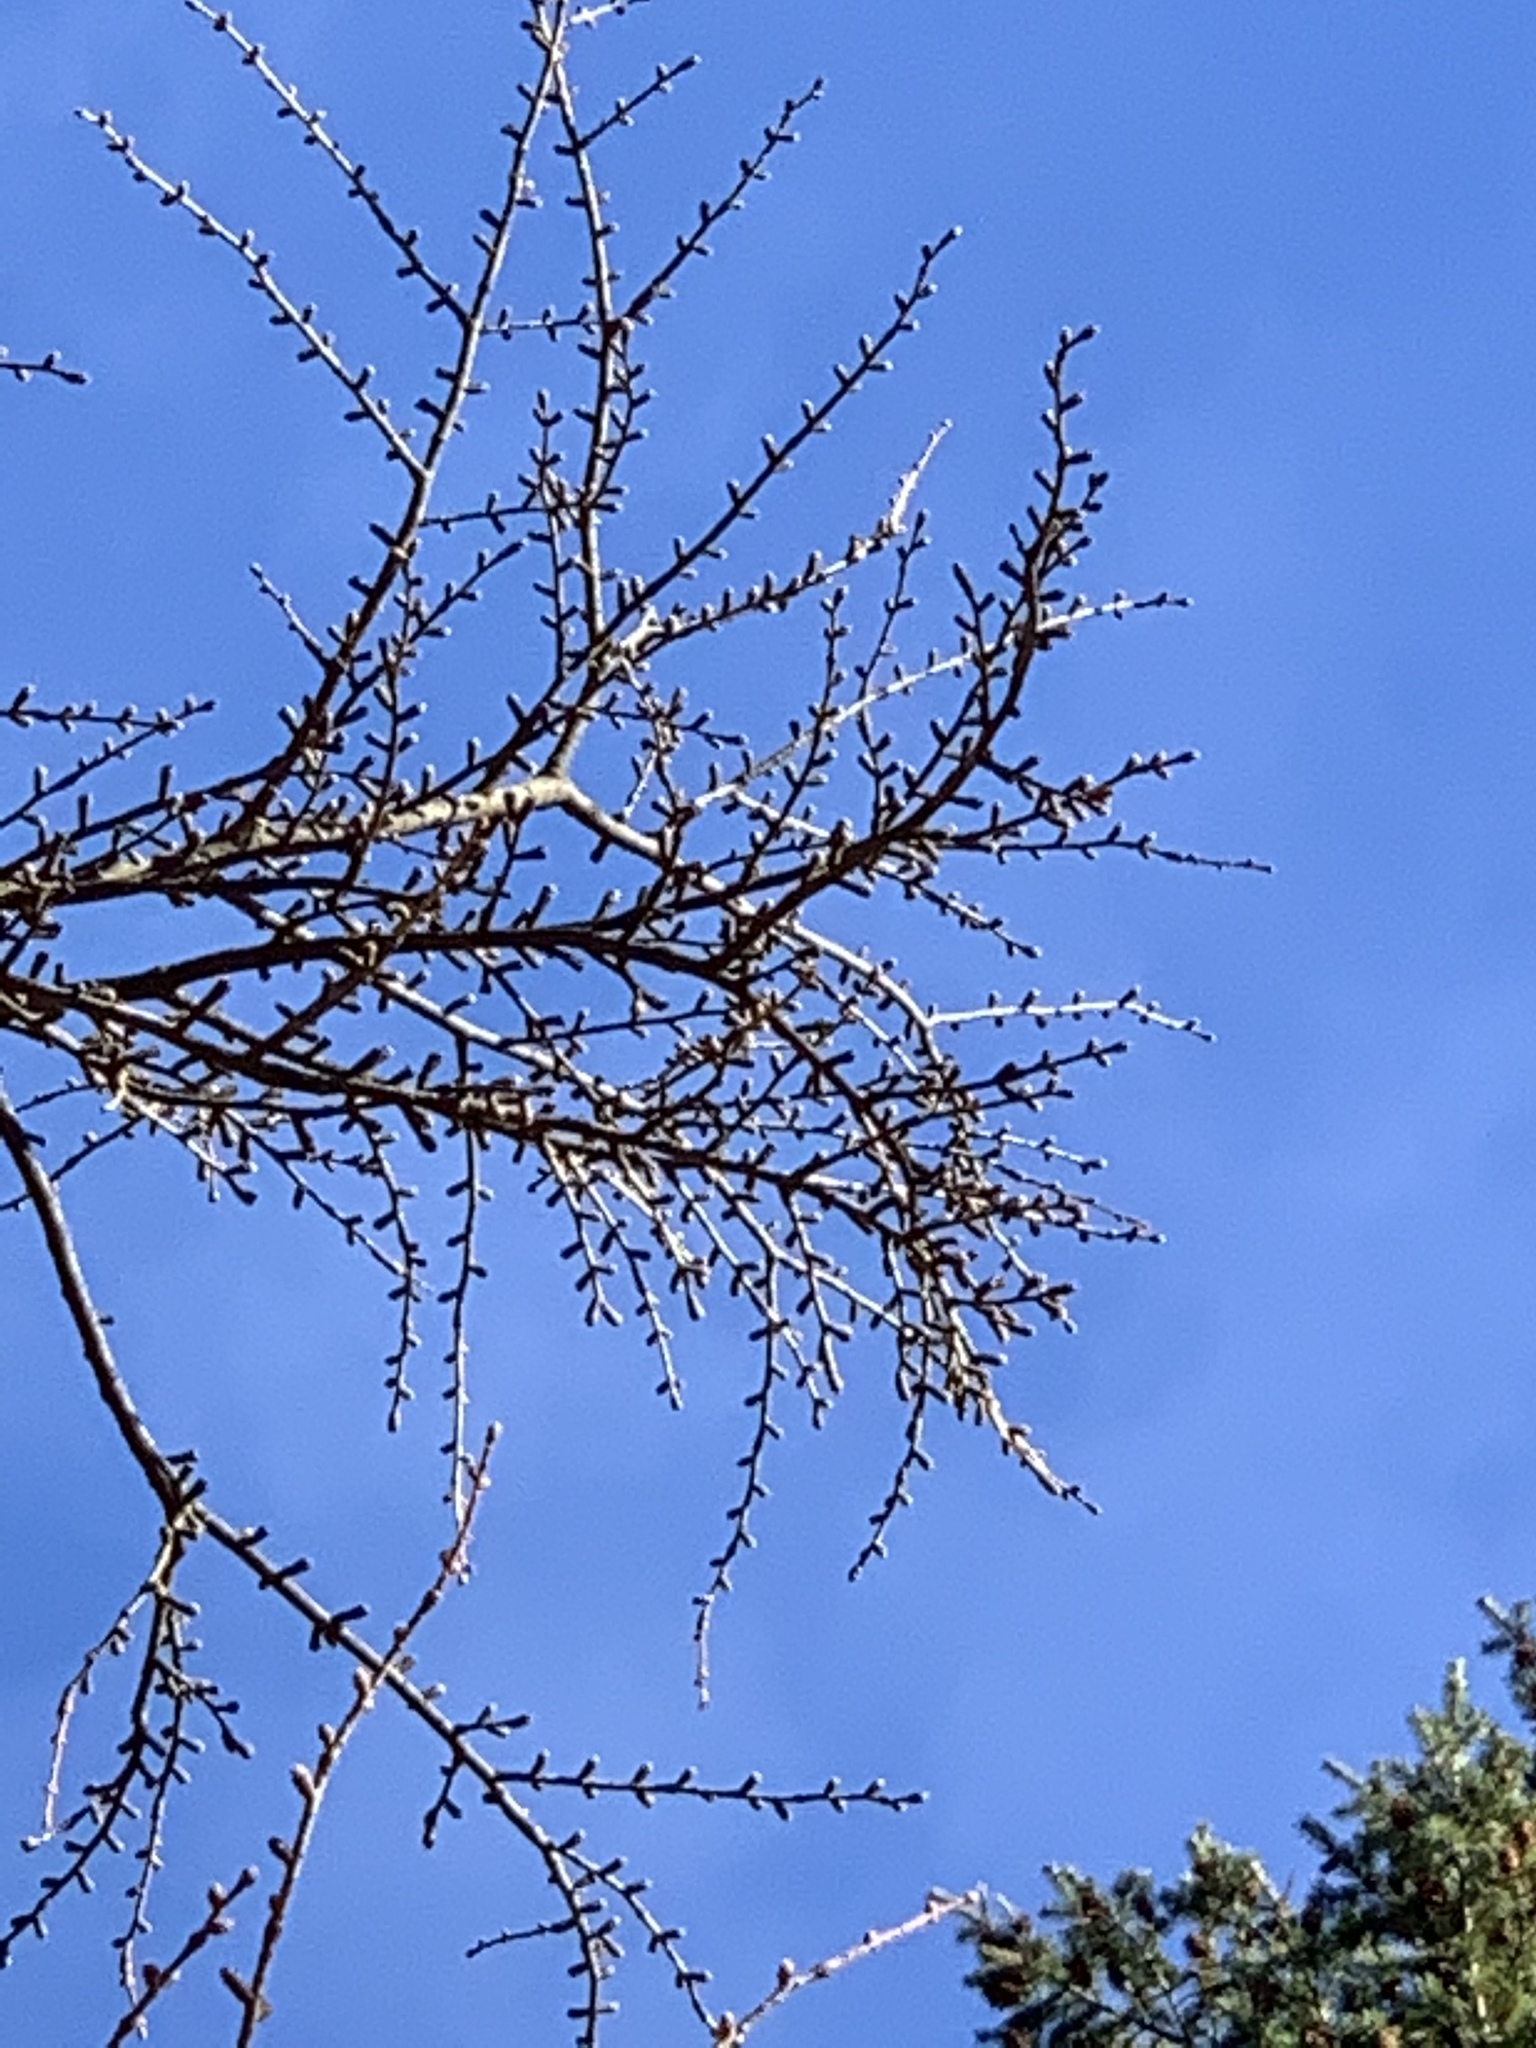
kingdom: Plantae
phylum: Tracheophyta
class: Pinopsida
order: Pinales
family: Pinaceae
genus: Pseudolarix
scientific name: Pseudolarix amabilis
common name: Chinese golden larch
